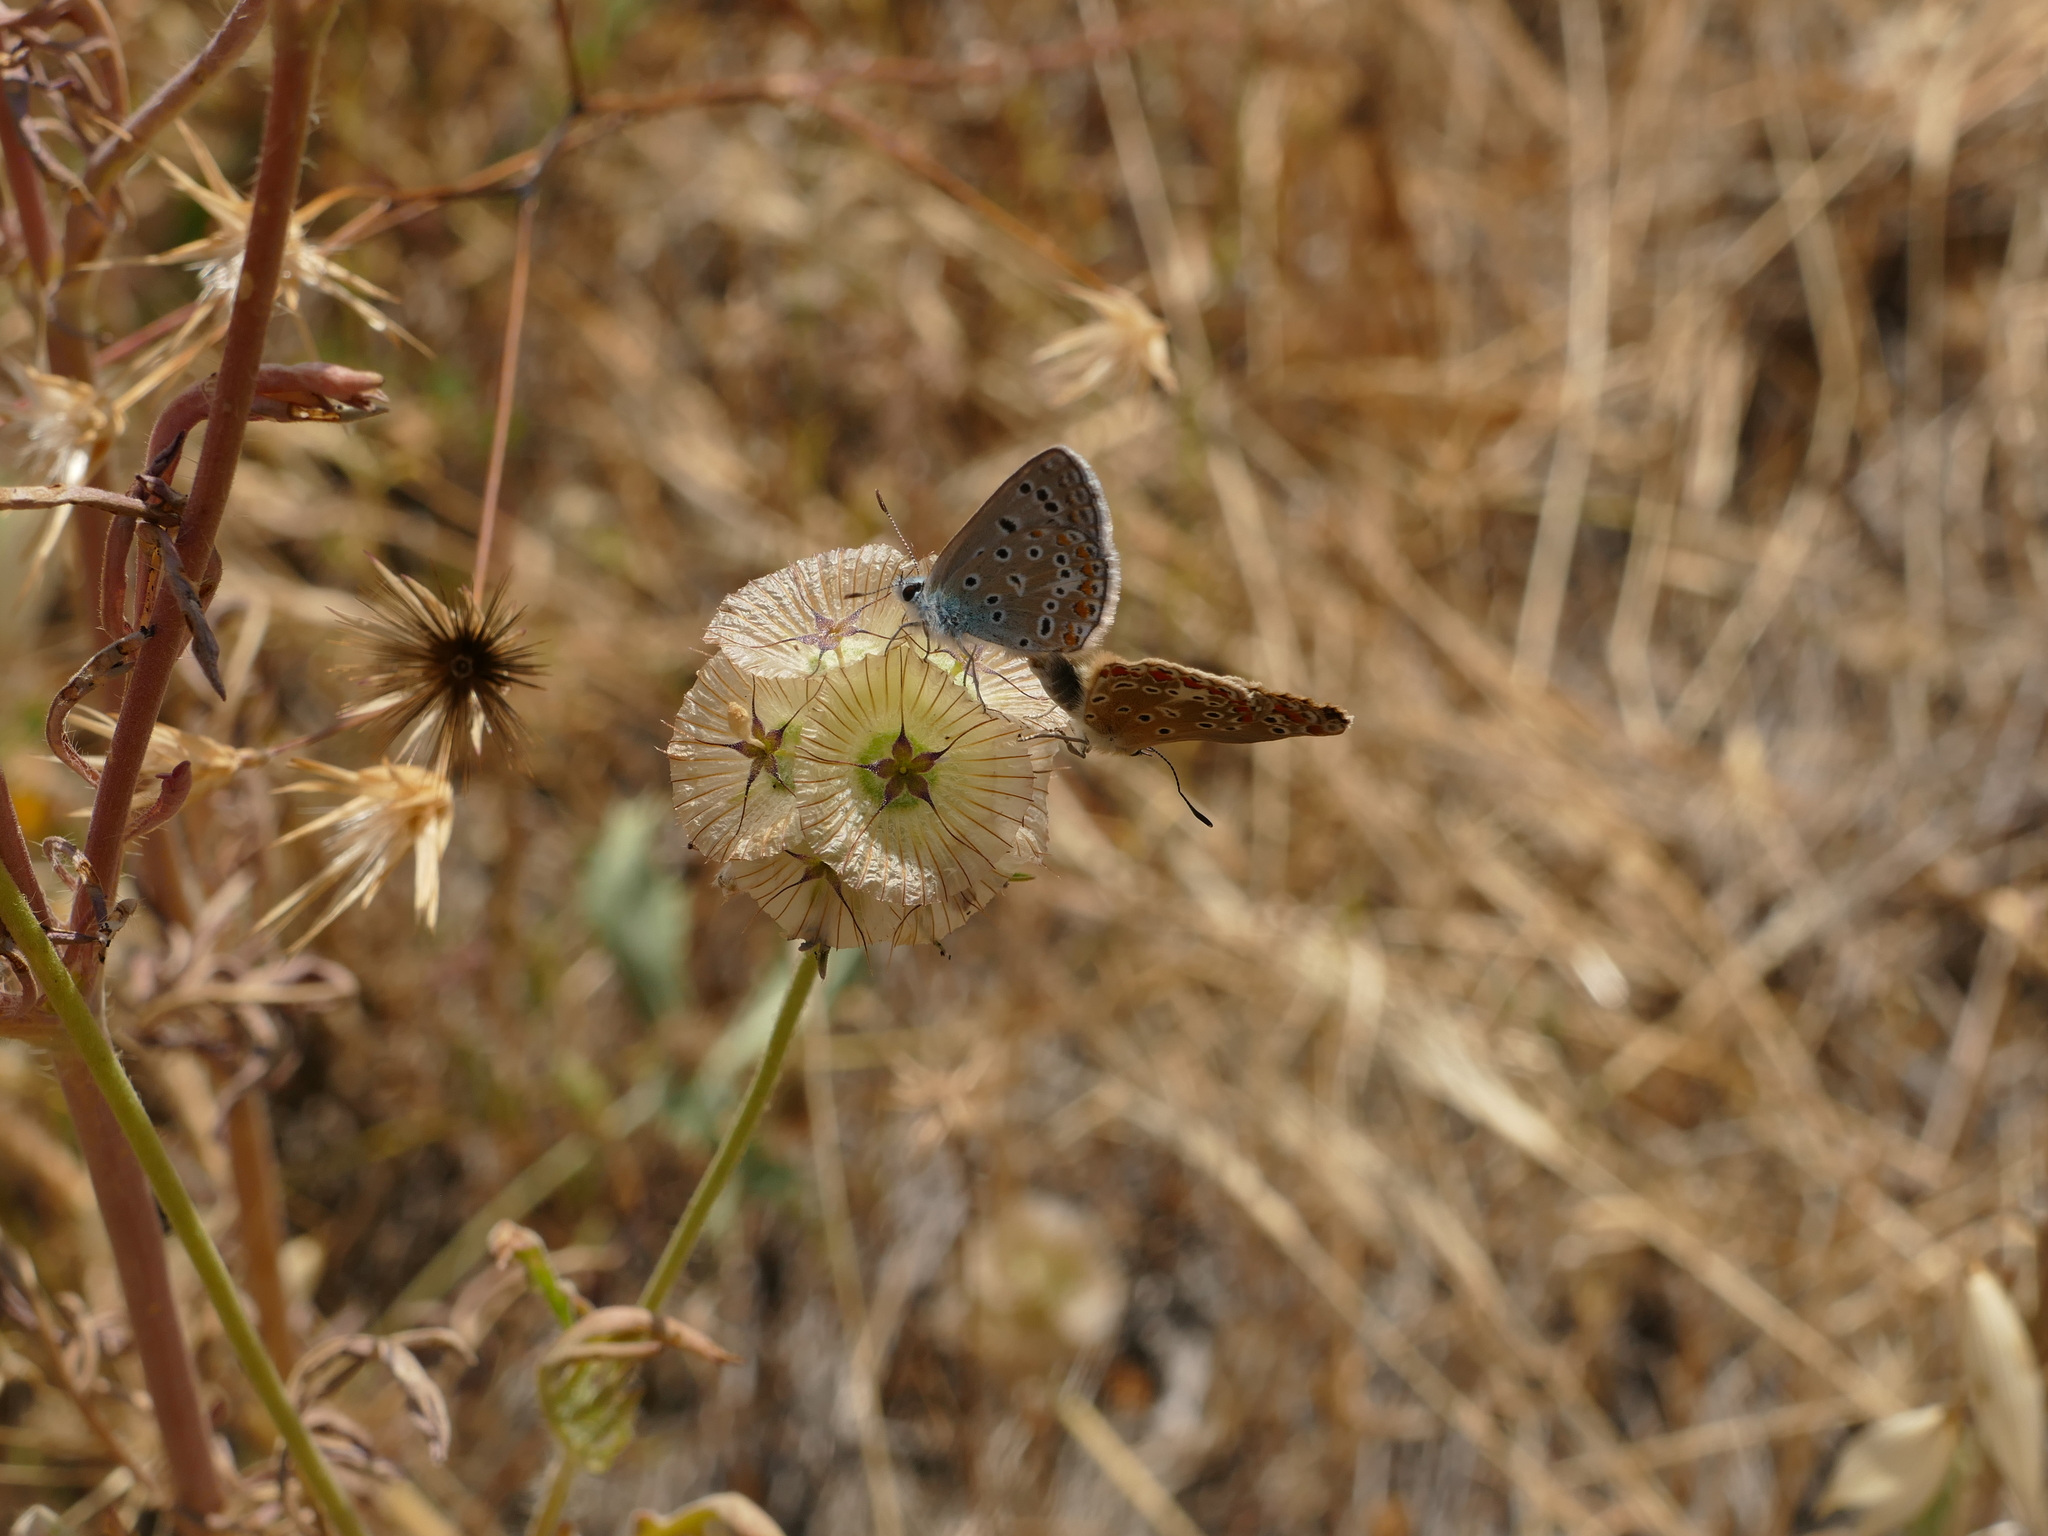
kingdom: Plantae
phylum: Tracheophyta
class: Magnoliopsida
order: Dipsacales
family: Caprifoliaceae
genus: Lomelosia
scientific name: Lomelosia stellata
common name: Teasel
